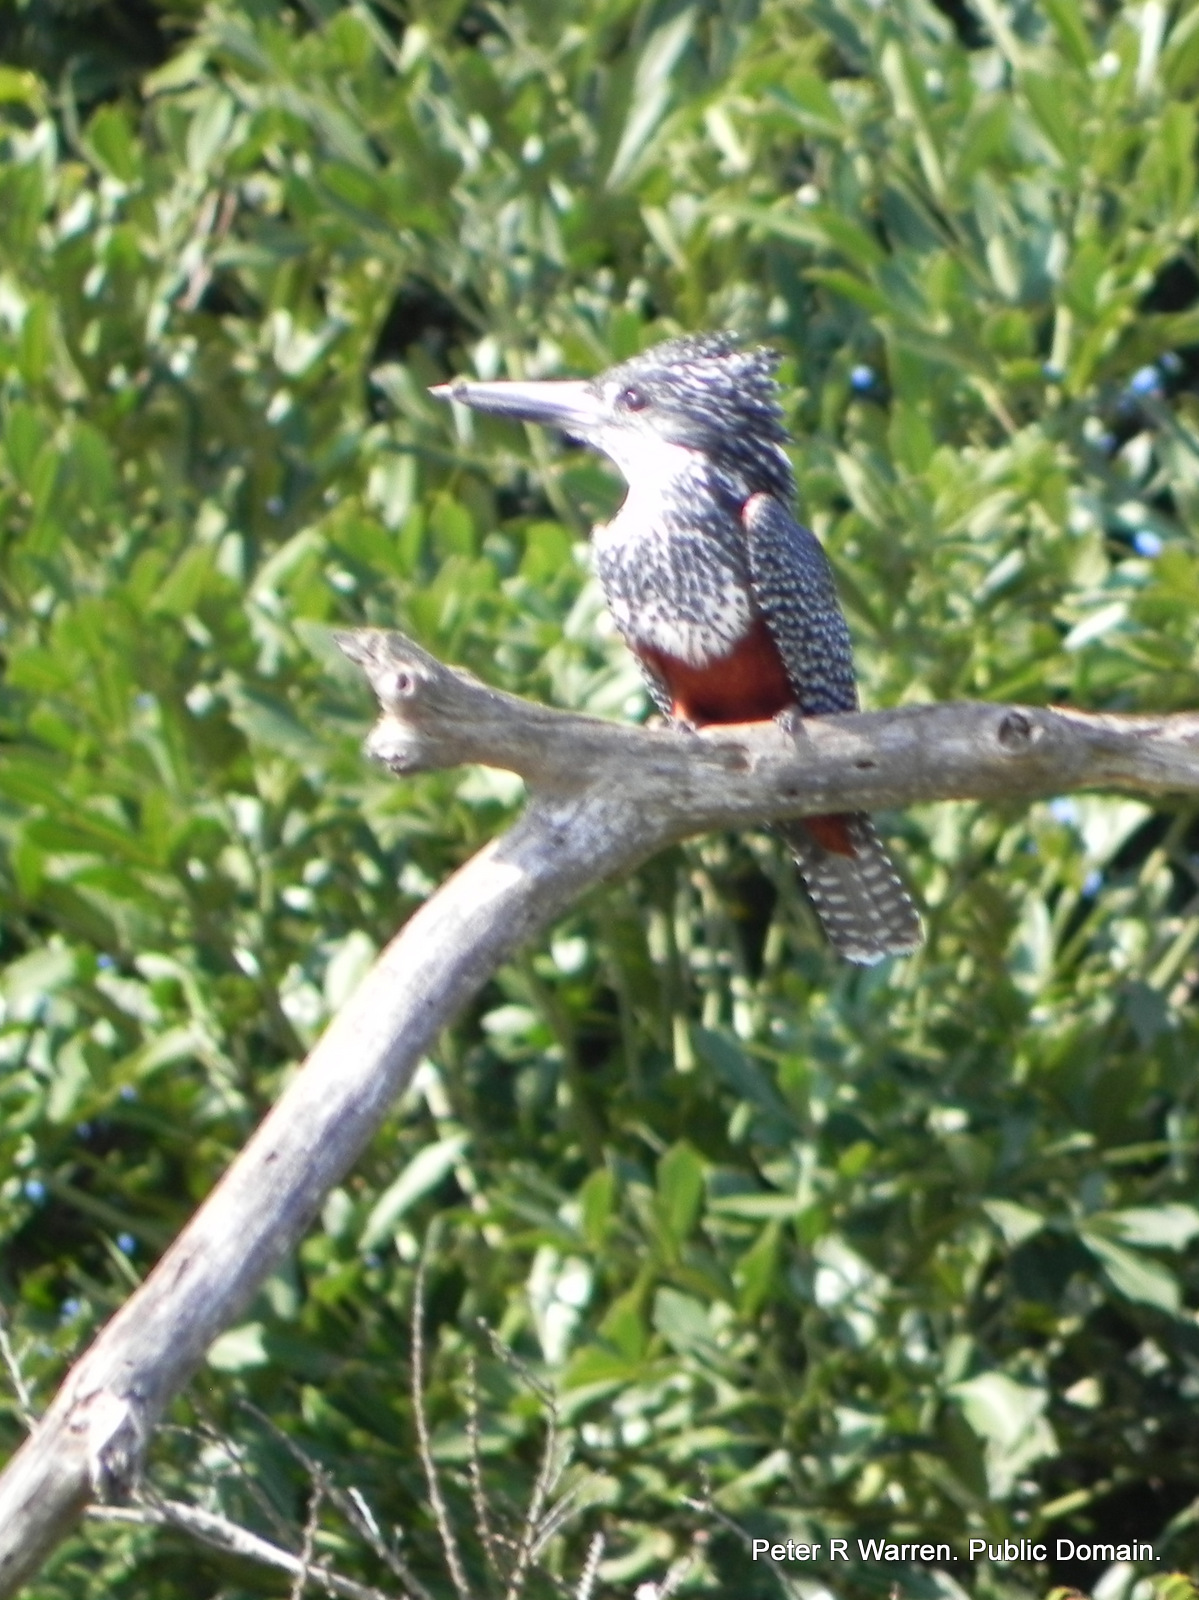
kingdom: Animalia
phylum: Chordata
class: Aves
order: Coraciiformes
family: Alcedinidae
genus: Megaceryle
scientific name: Megaceryle maxima
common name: Giant kingfisher
